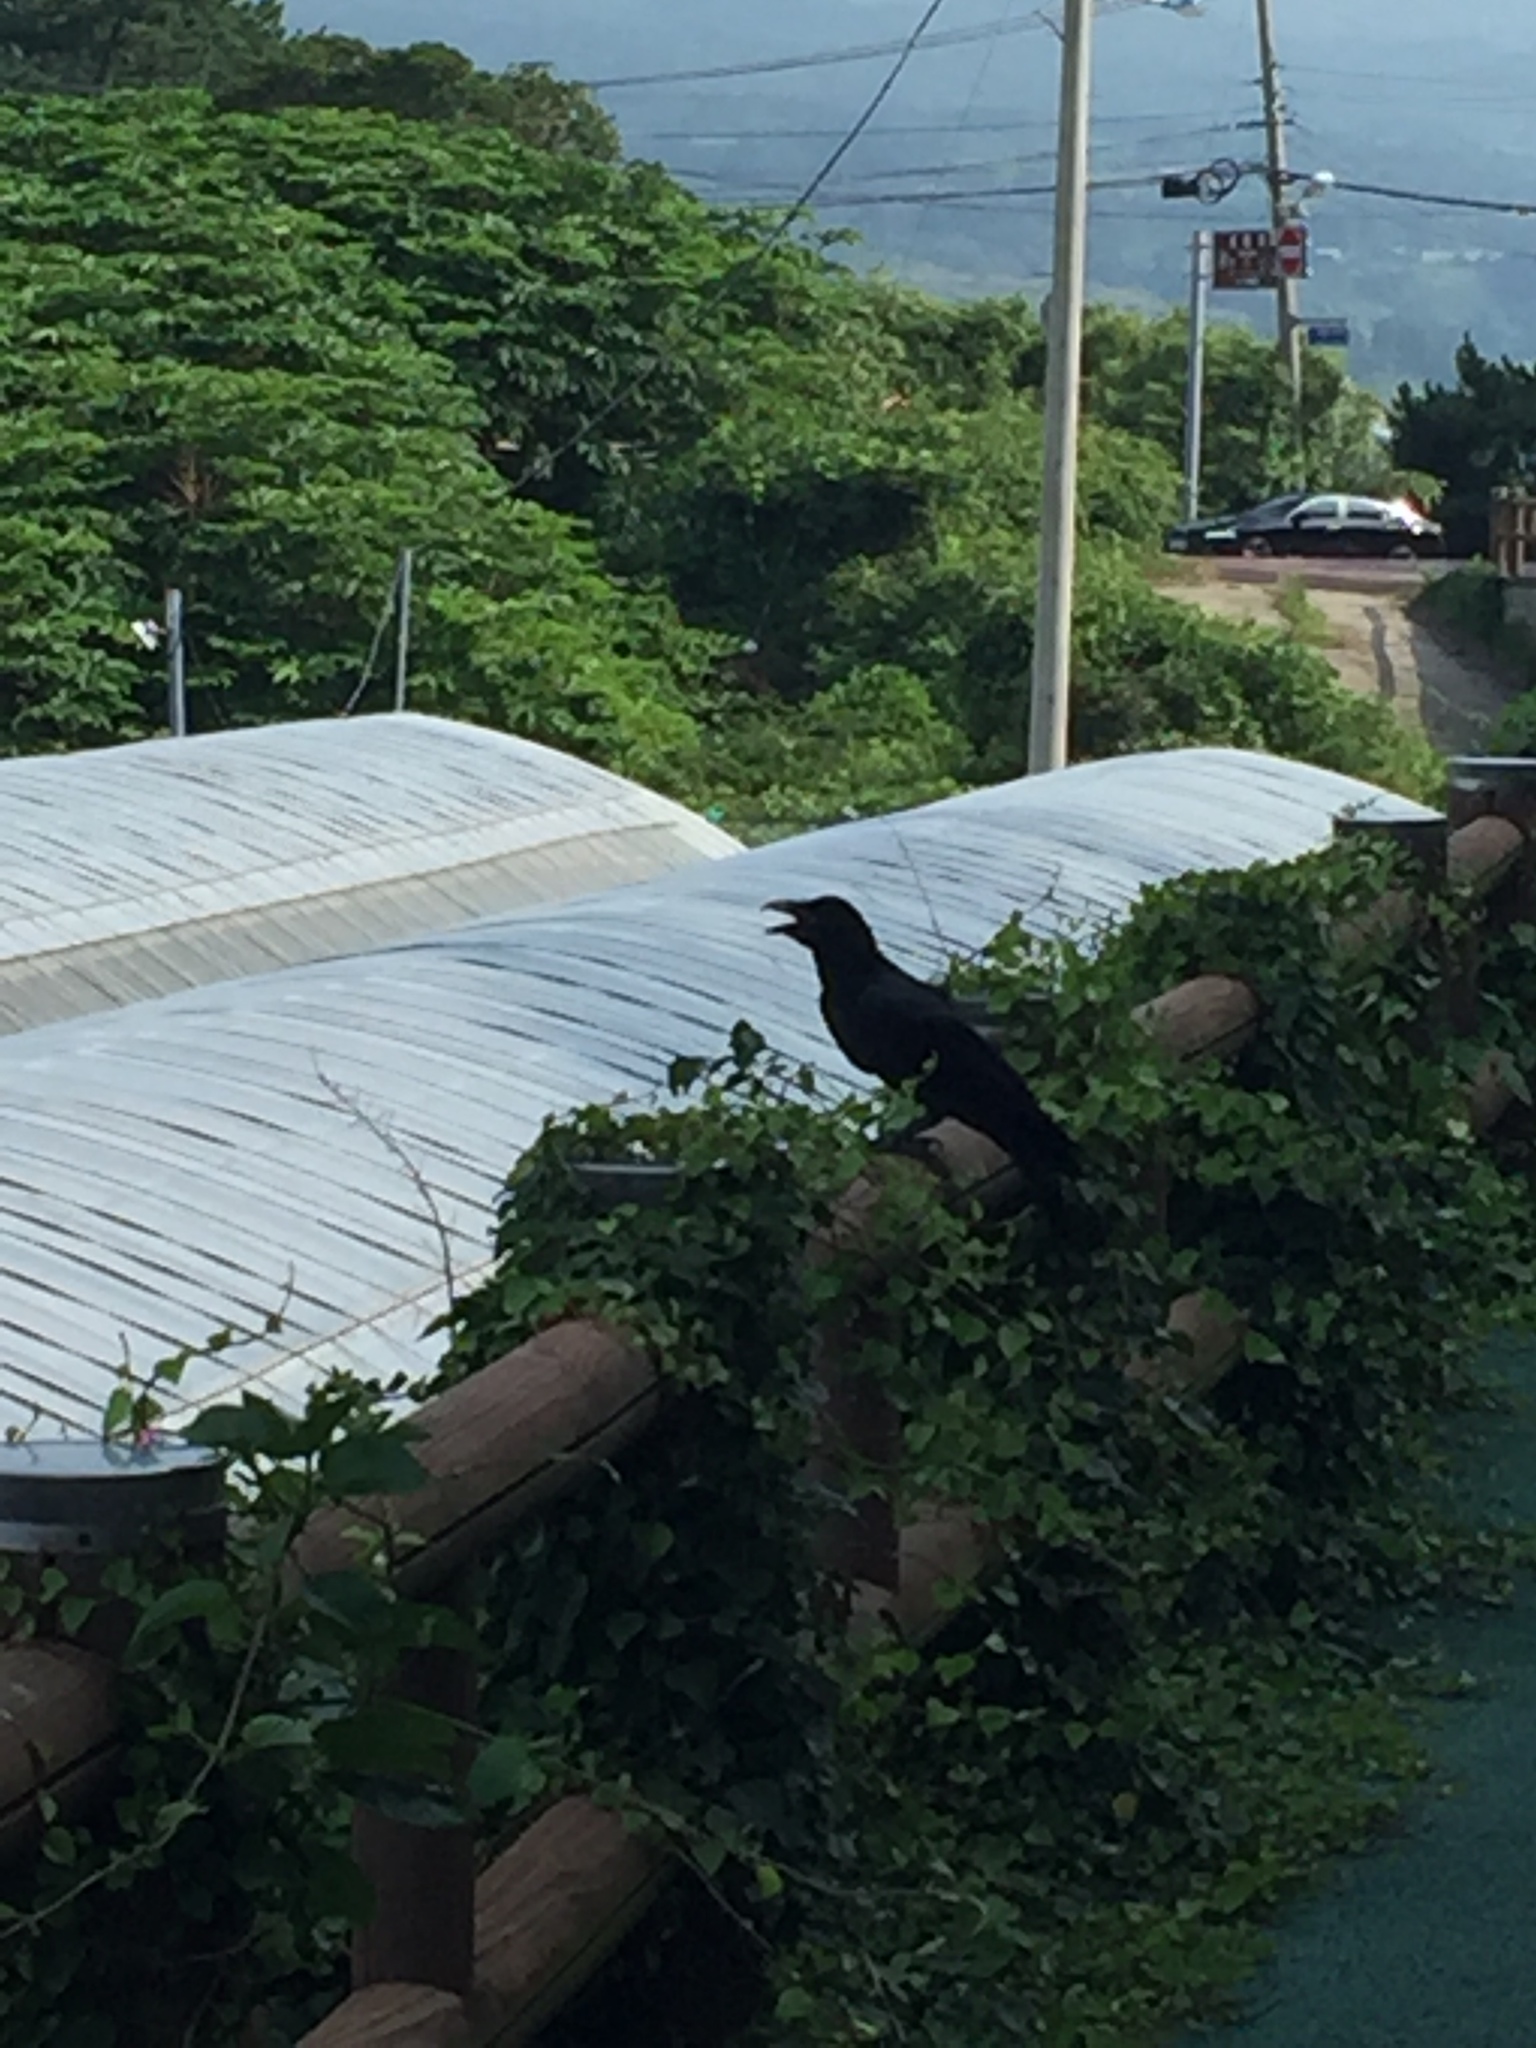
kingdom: Animalia
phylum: Chordata
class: Aves
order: Passeriformes
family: Corvidae
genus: Corvus
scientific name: Corvus macrorhynchos
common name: Large-billed crow
